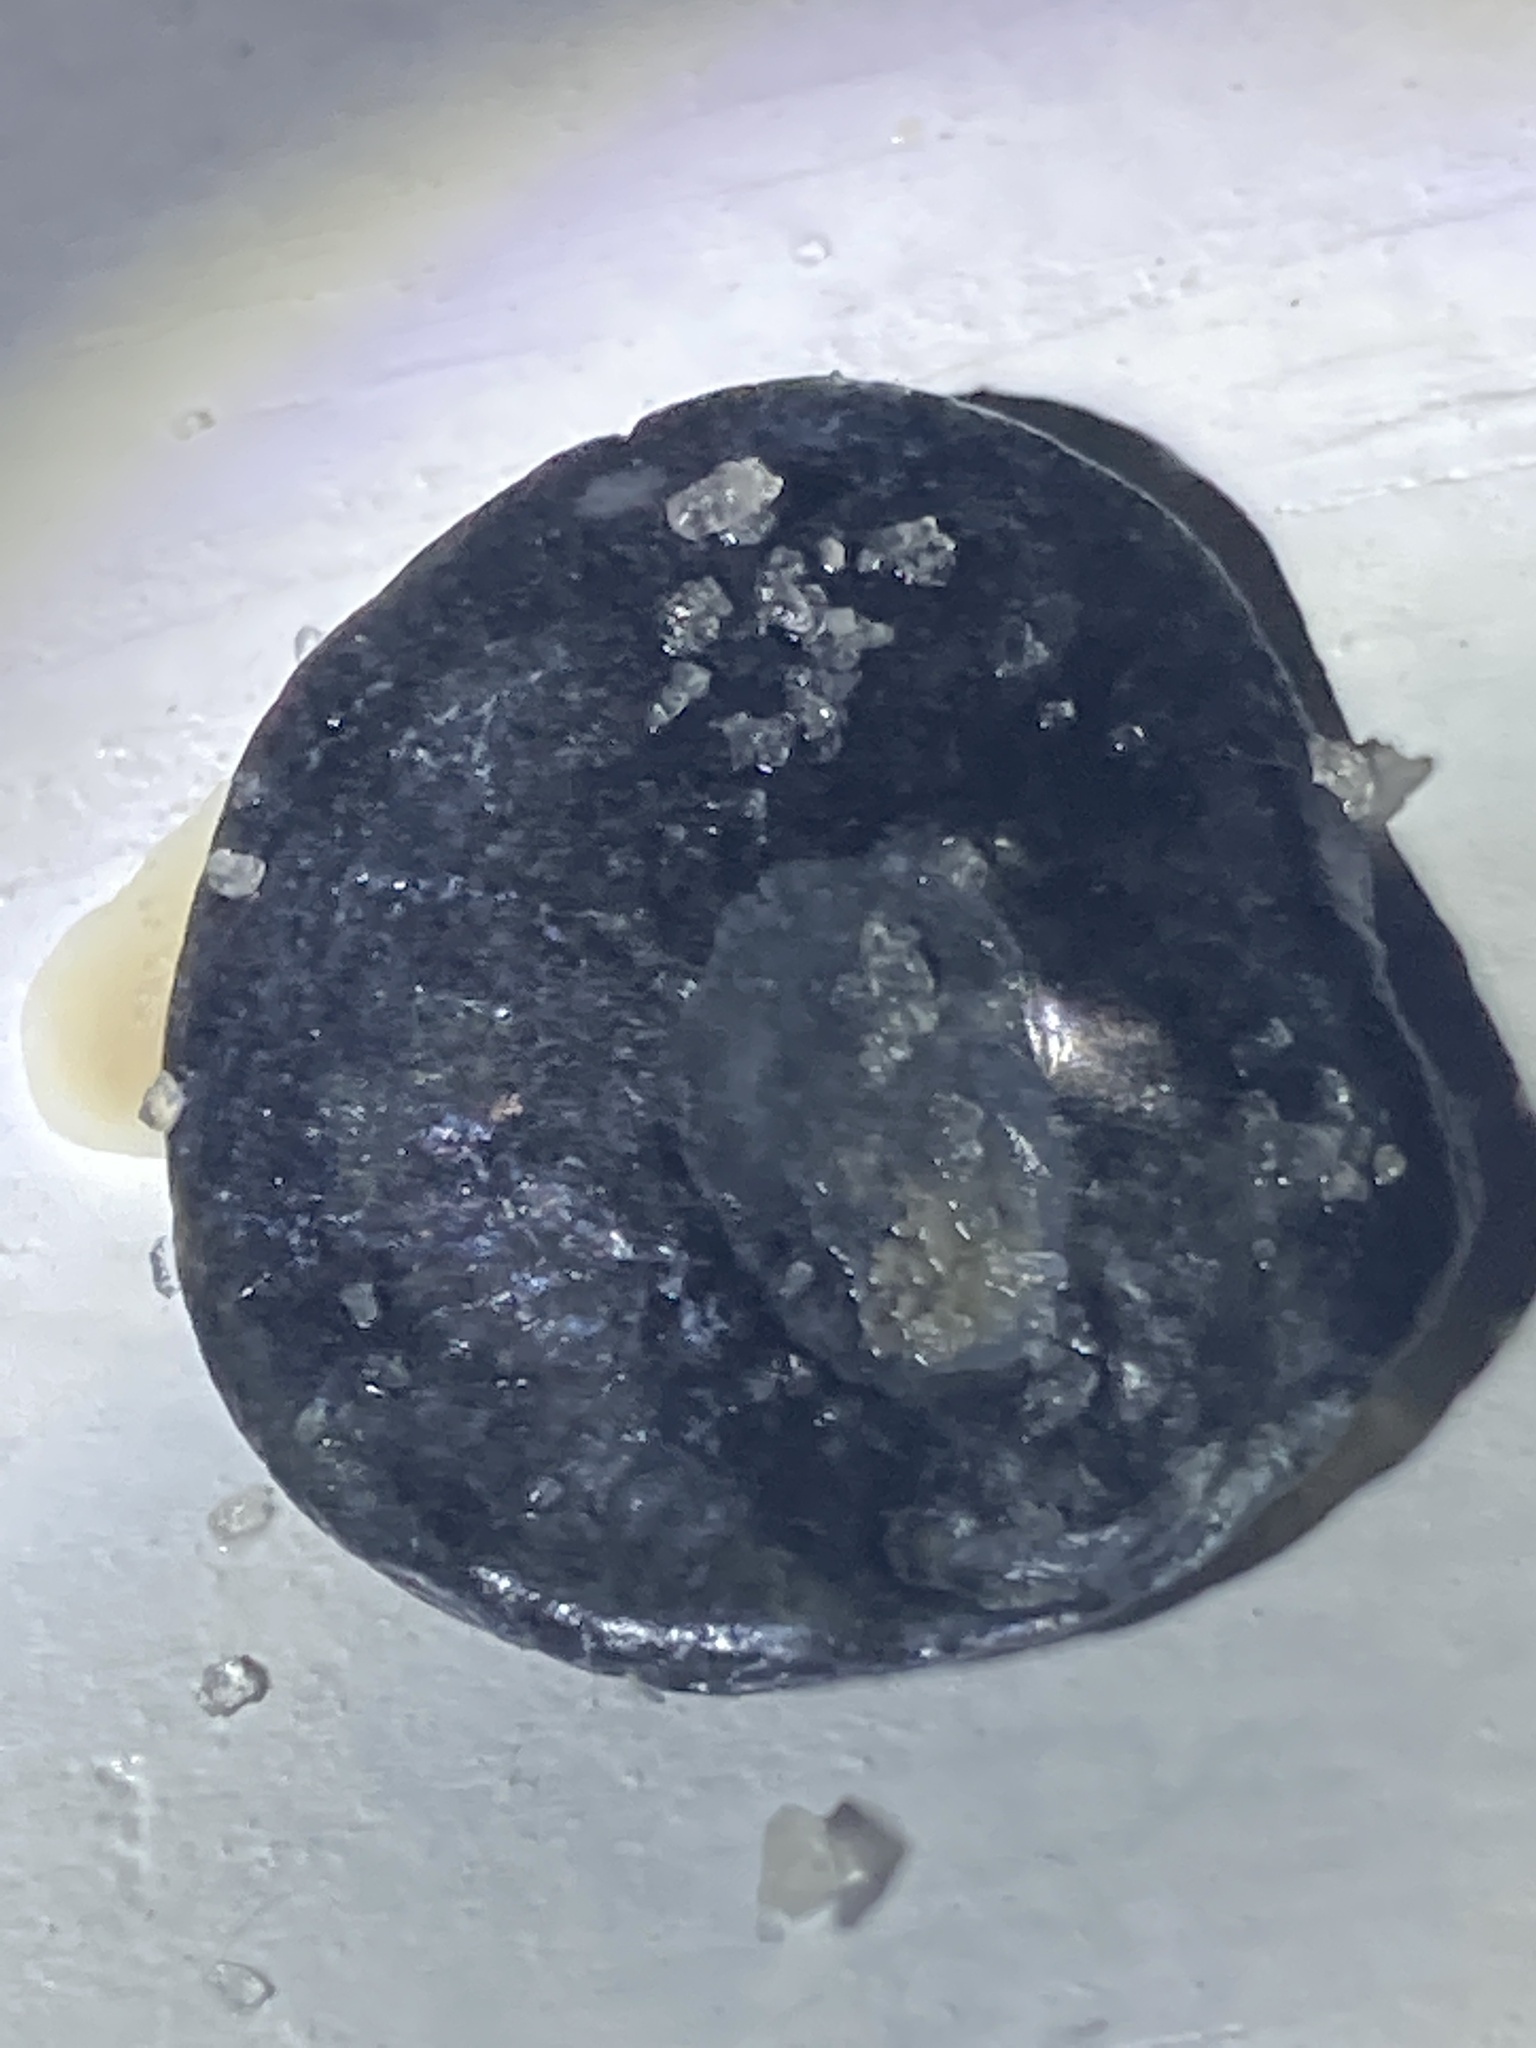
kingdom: Animalia
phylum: Mollusca
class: Bivalvia
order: Pectinida
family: Anomiidae
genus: Anomia
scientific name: Anomia simplex
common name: Common jingle shell
